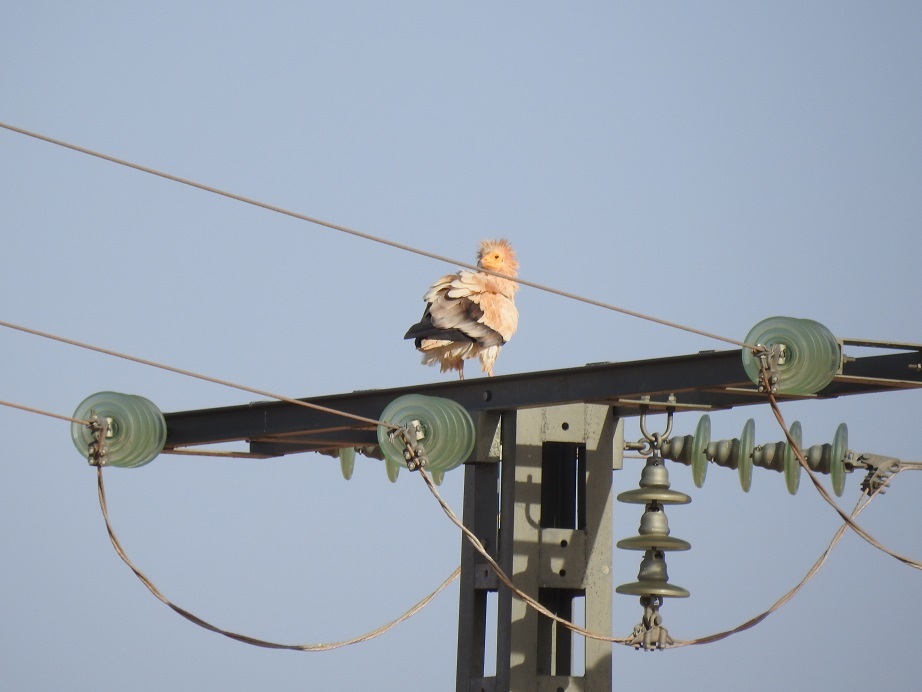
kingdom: Animalia
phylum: Chordata
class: Aves
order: Accipitriformes
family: Accipitridae
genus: Neophron
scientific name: Neophron percnopterus
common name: Egyptian vulture
